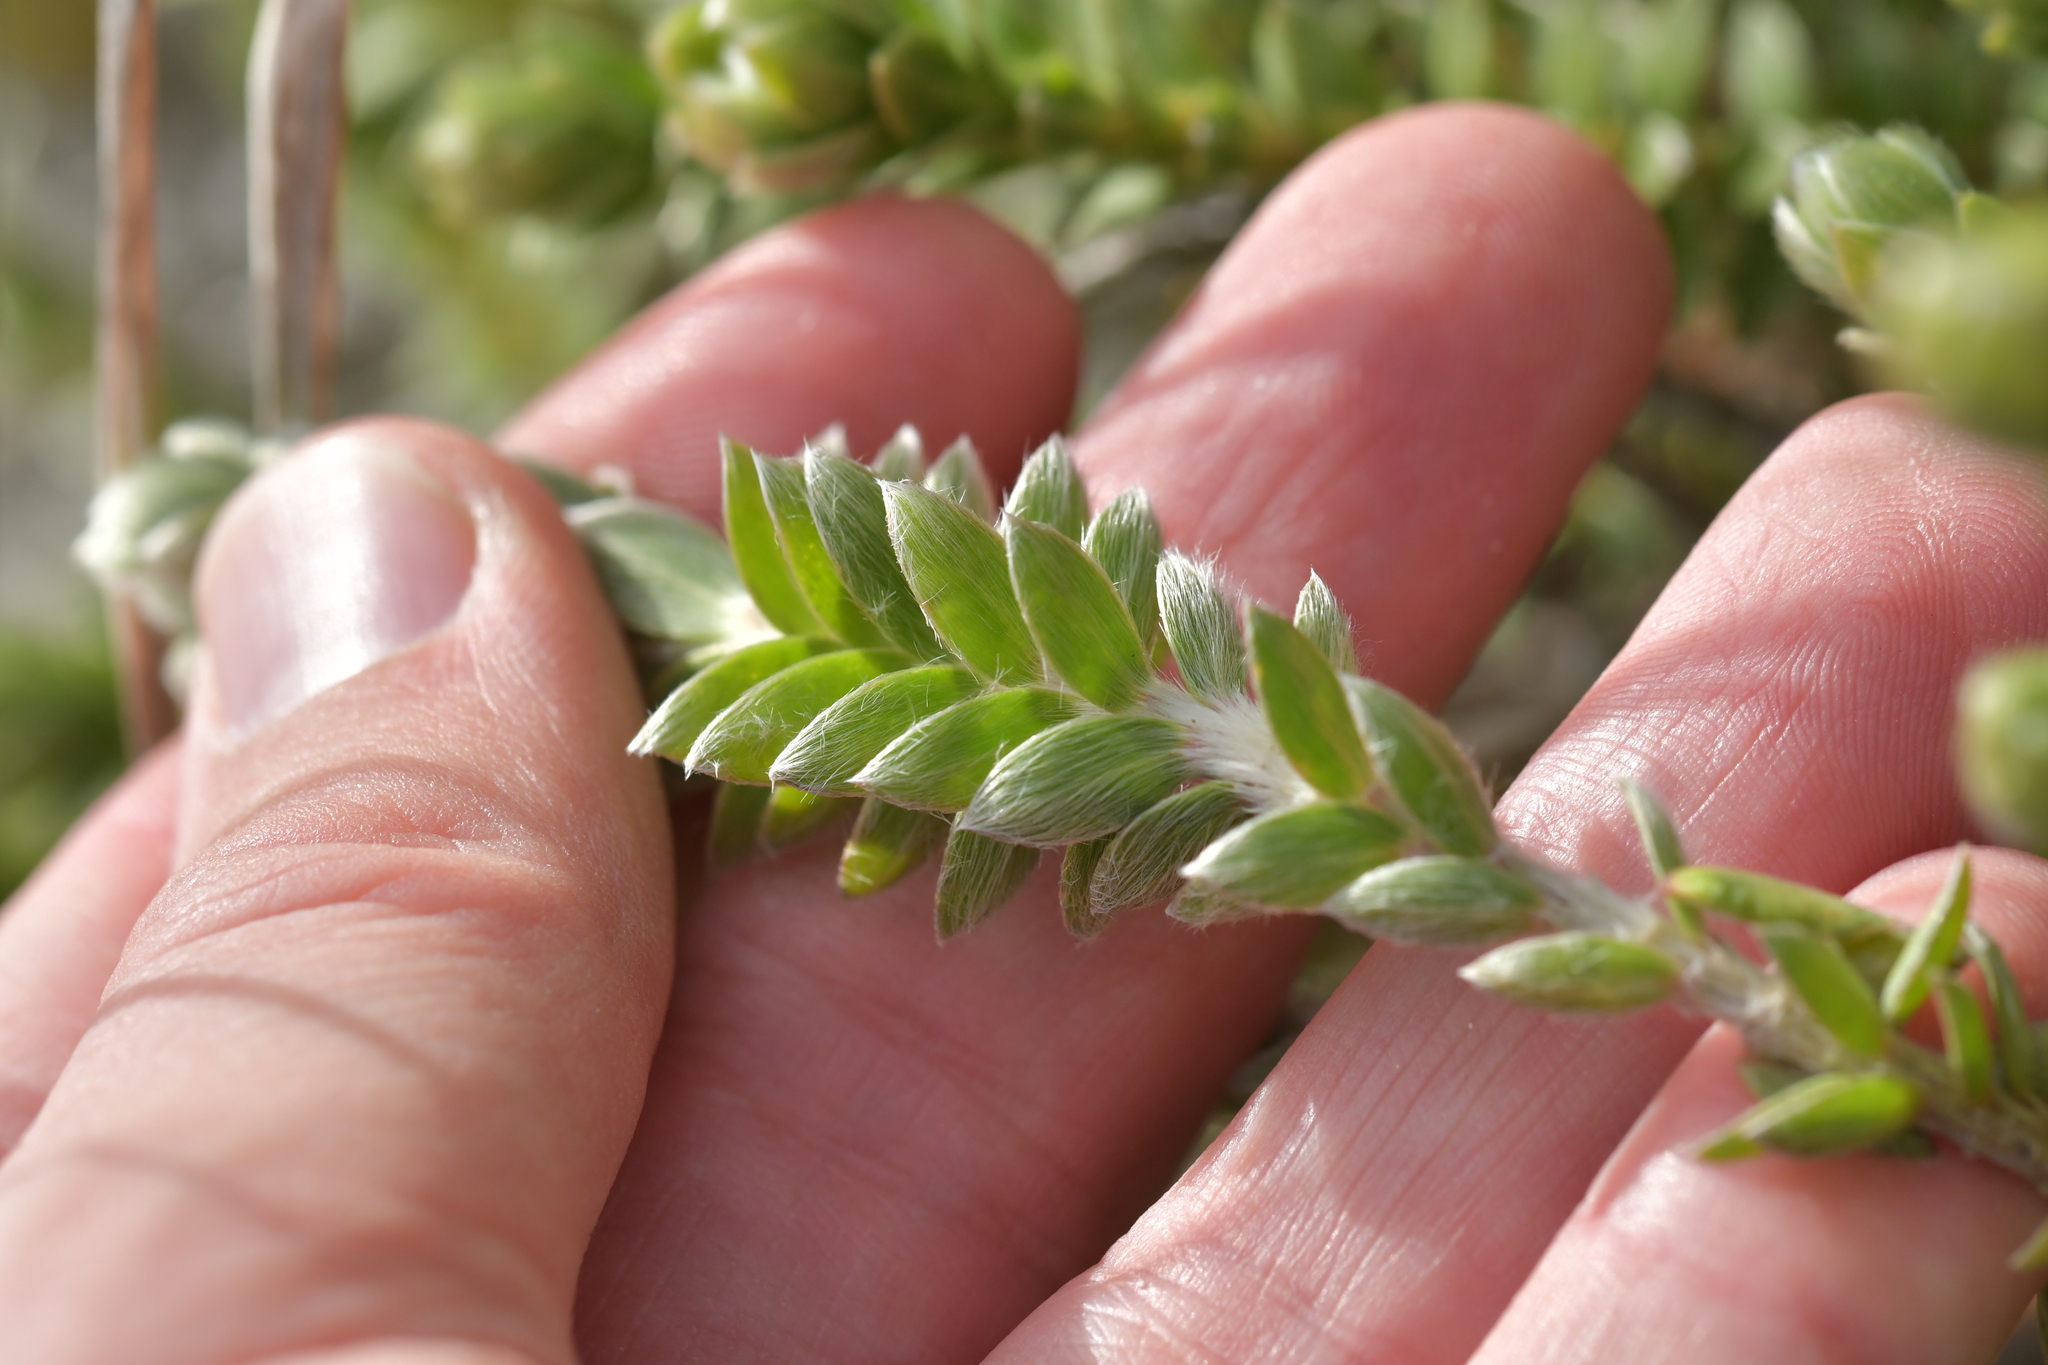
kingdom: Plantae
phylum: Tracheophyta
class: Magnoliopsida
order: Malvales
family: Thymelaeaceae
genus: Pimelea
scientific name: Pimelea villosa
